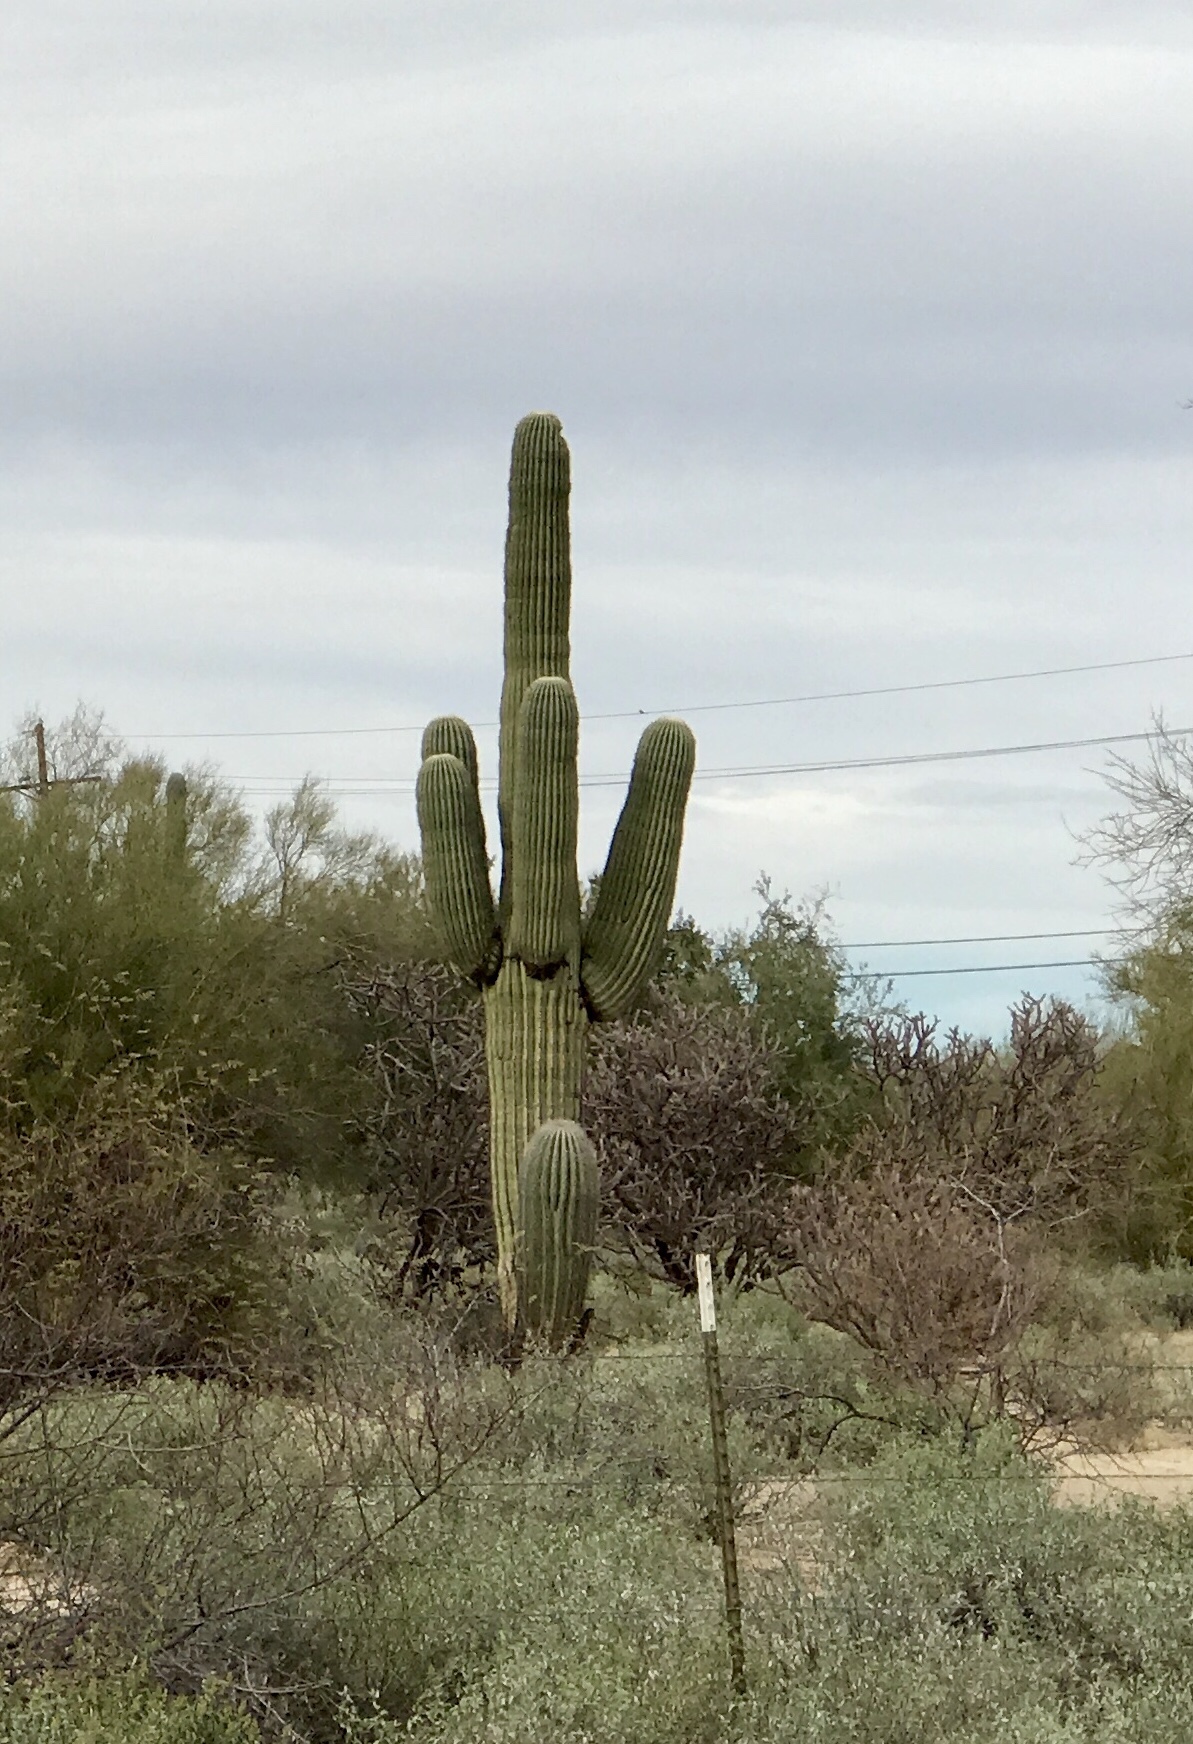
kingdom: Plantae
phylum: Tracheophyta
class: Magnoliopsida
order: Caryophyllales
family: Cactaceae
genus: Carnegiea
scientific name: Carnegiea gigantea
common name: Saguaro
